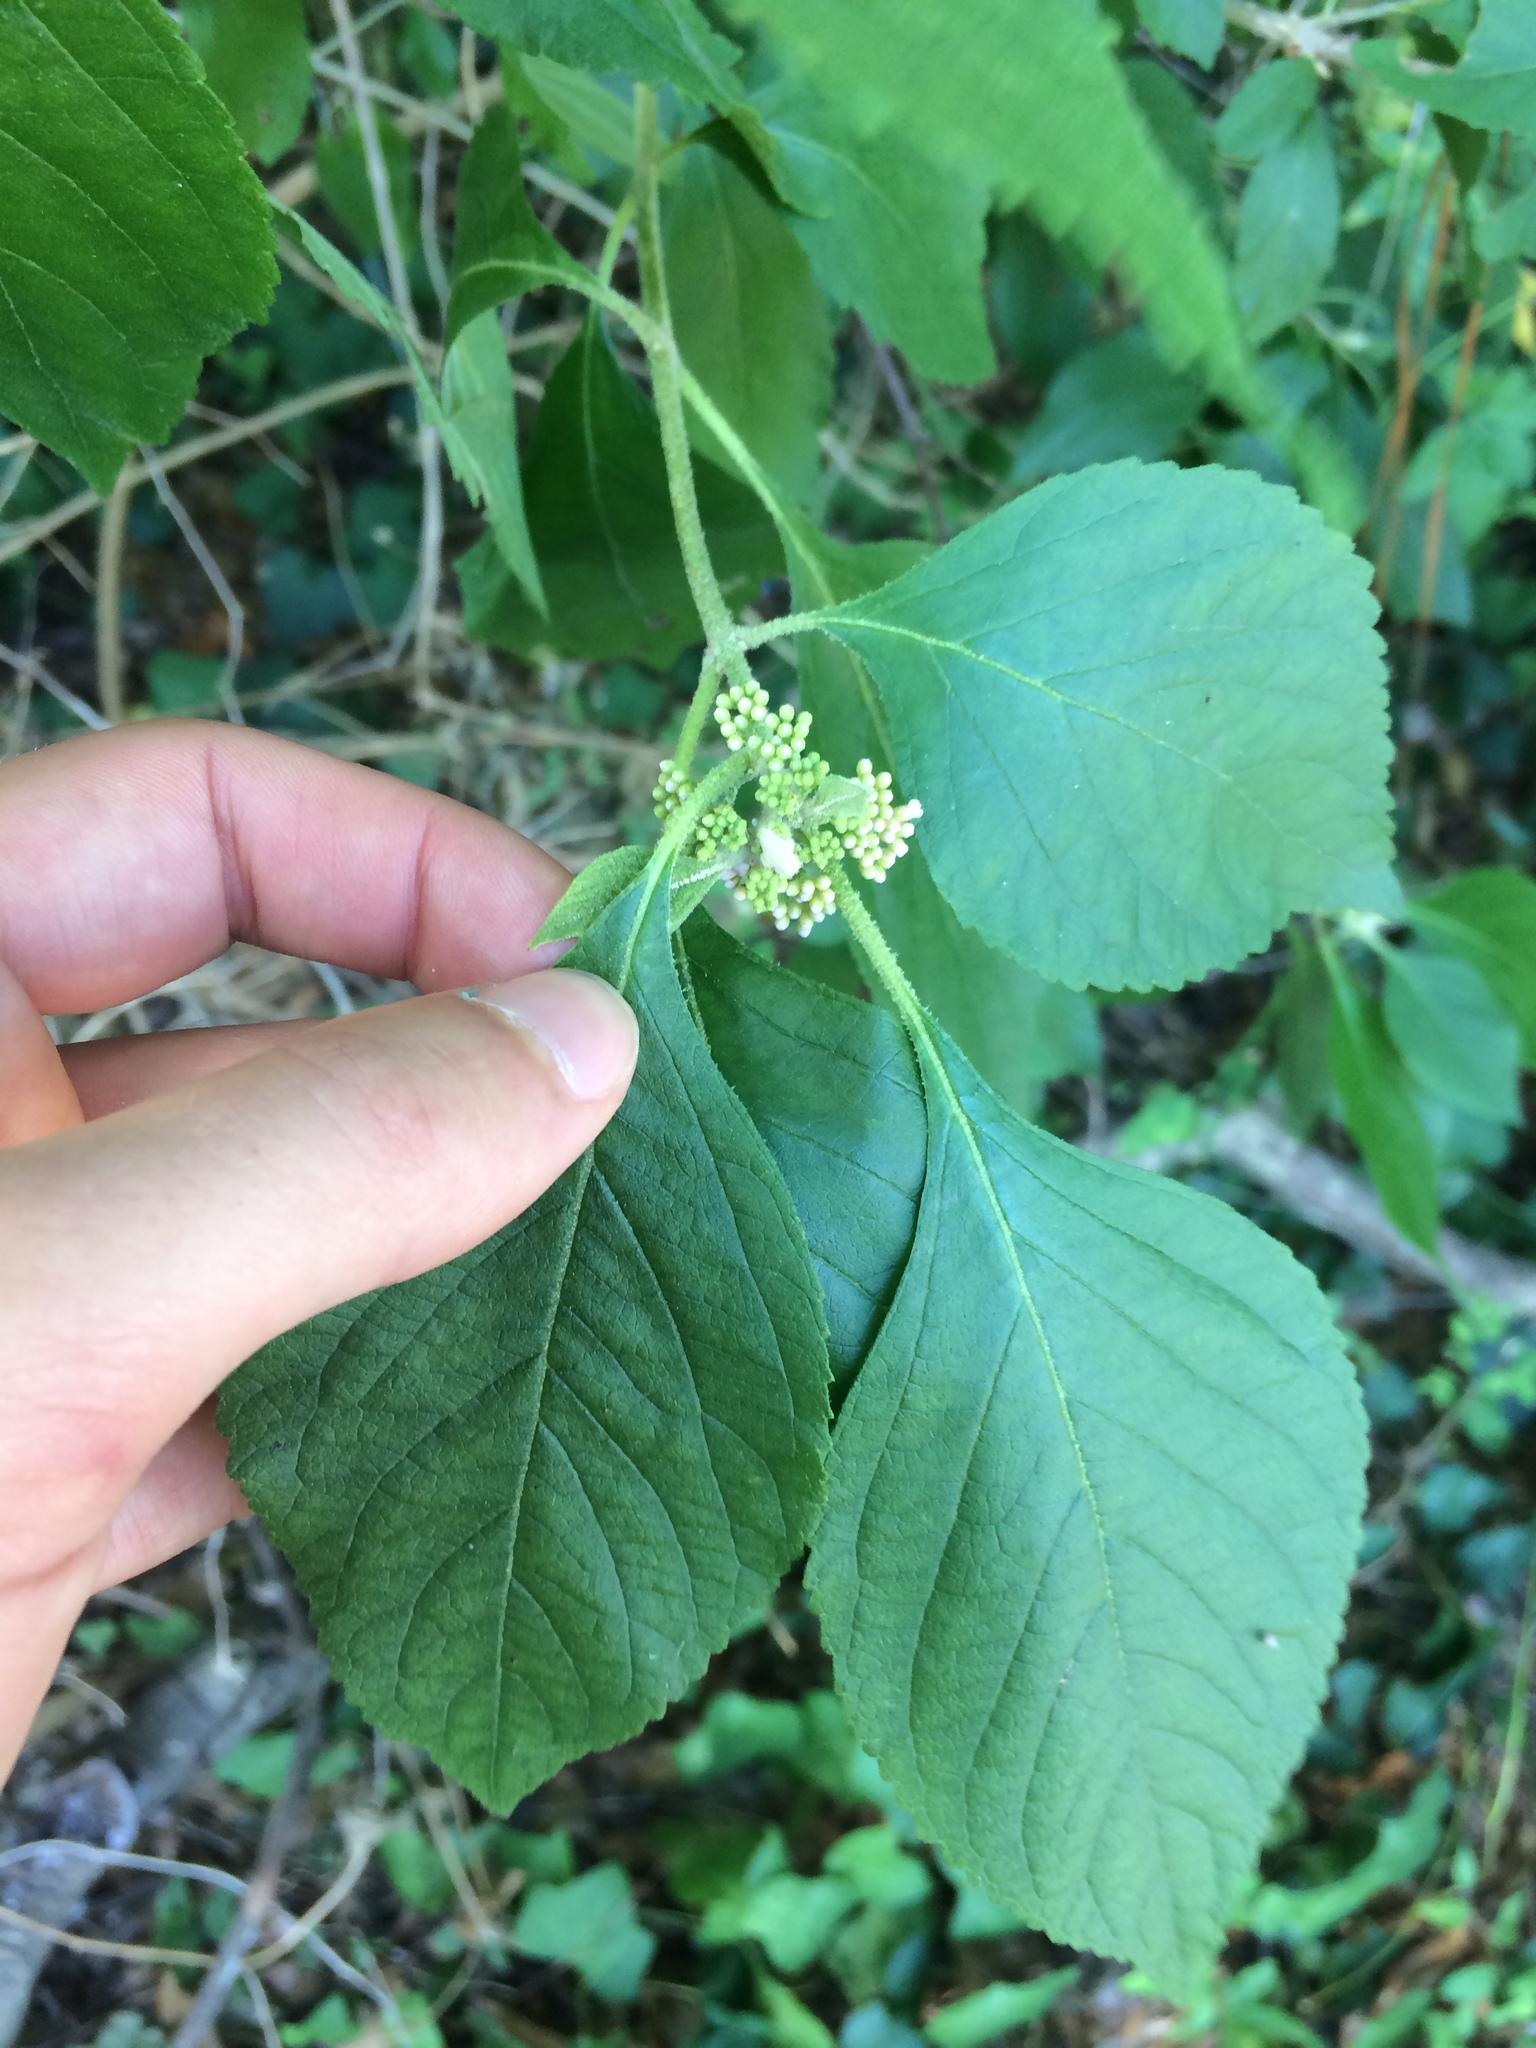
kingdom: Plantae
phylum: Tracheophyta
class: Magnoliopsida
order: Lamiales
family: Lamiaceae
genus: Callicarpa
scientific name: Callicarpa americana
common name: American beautyberry
